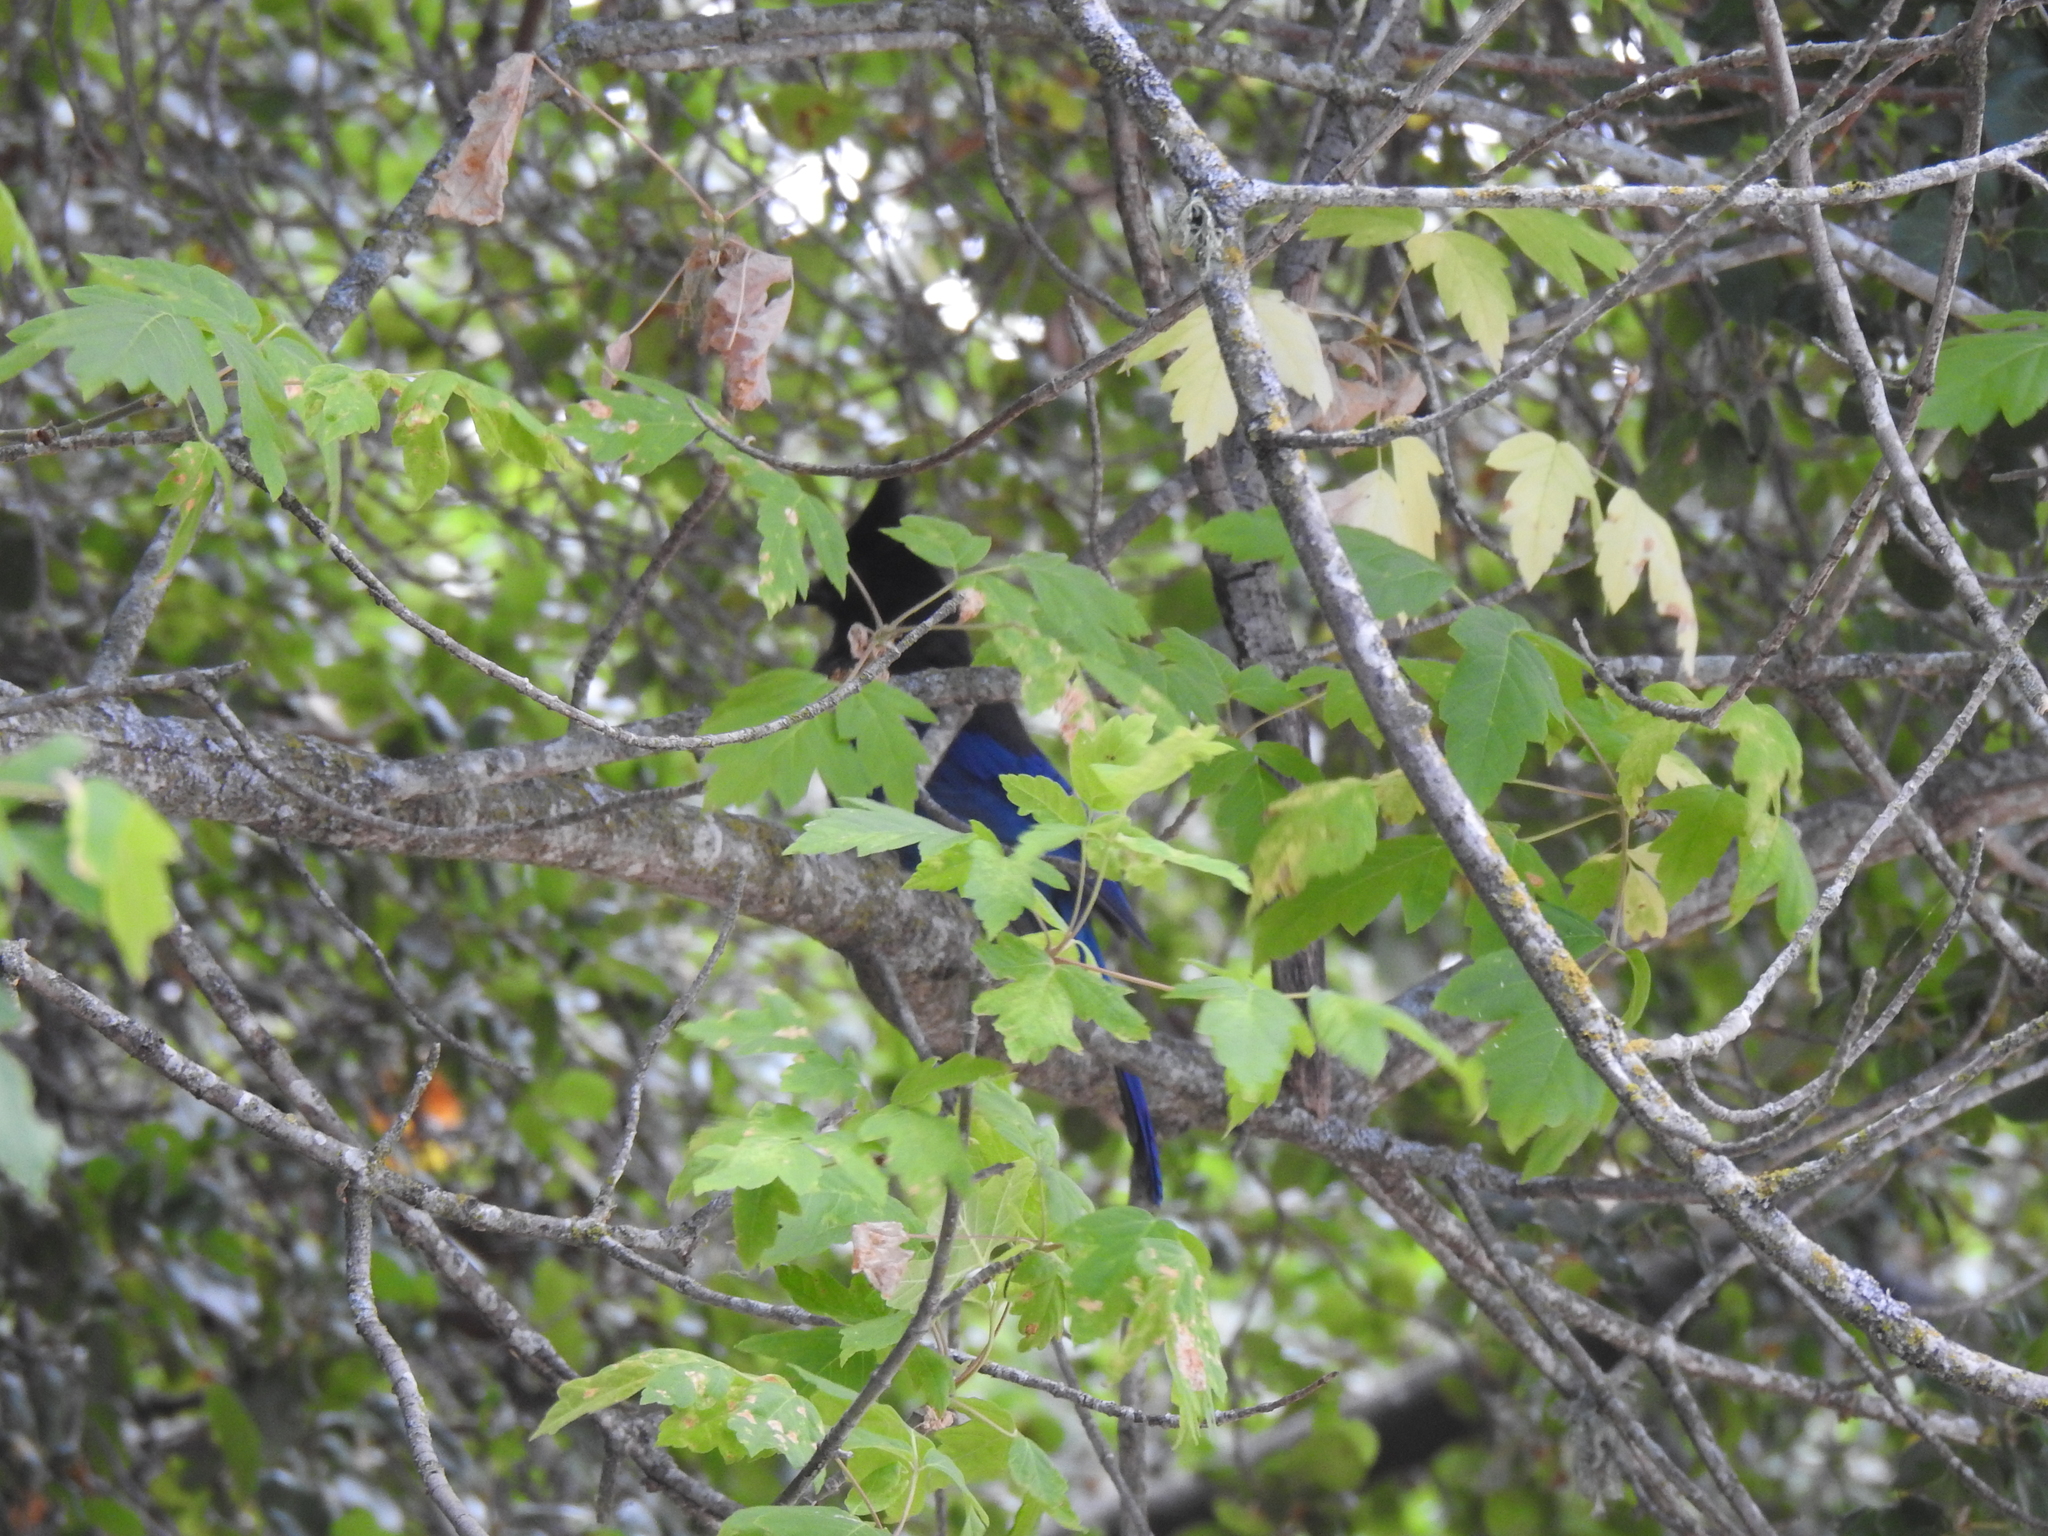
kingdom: Animalia
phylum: Chordata
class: Aves
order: Passeriformes
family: Corvidae
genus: Cyanocitta
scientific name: Cyanocitta stelleri
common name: Steller's jay
